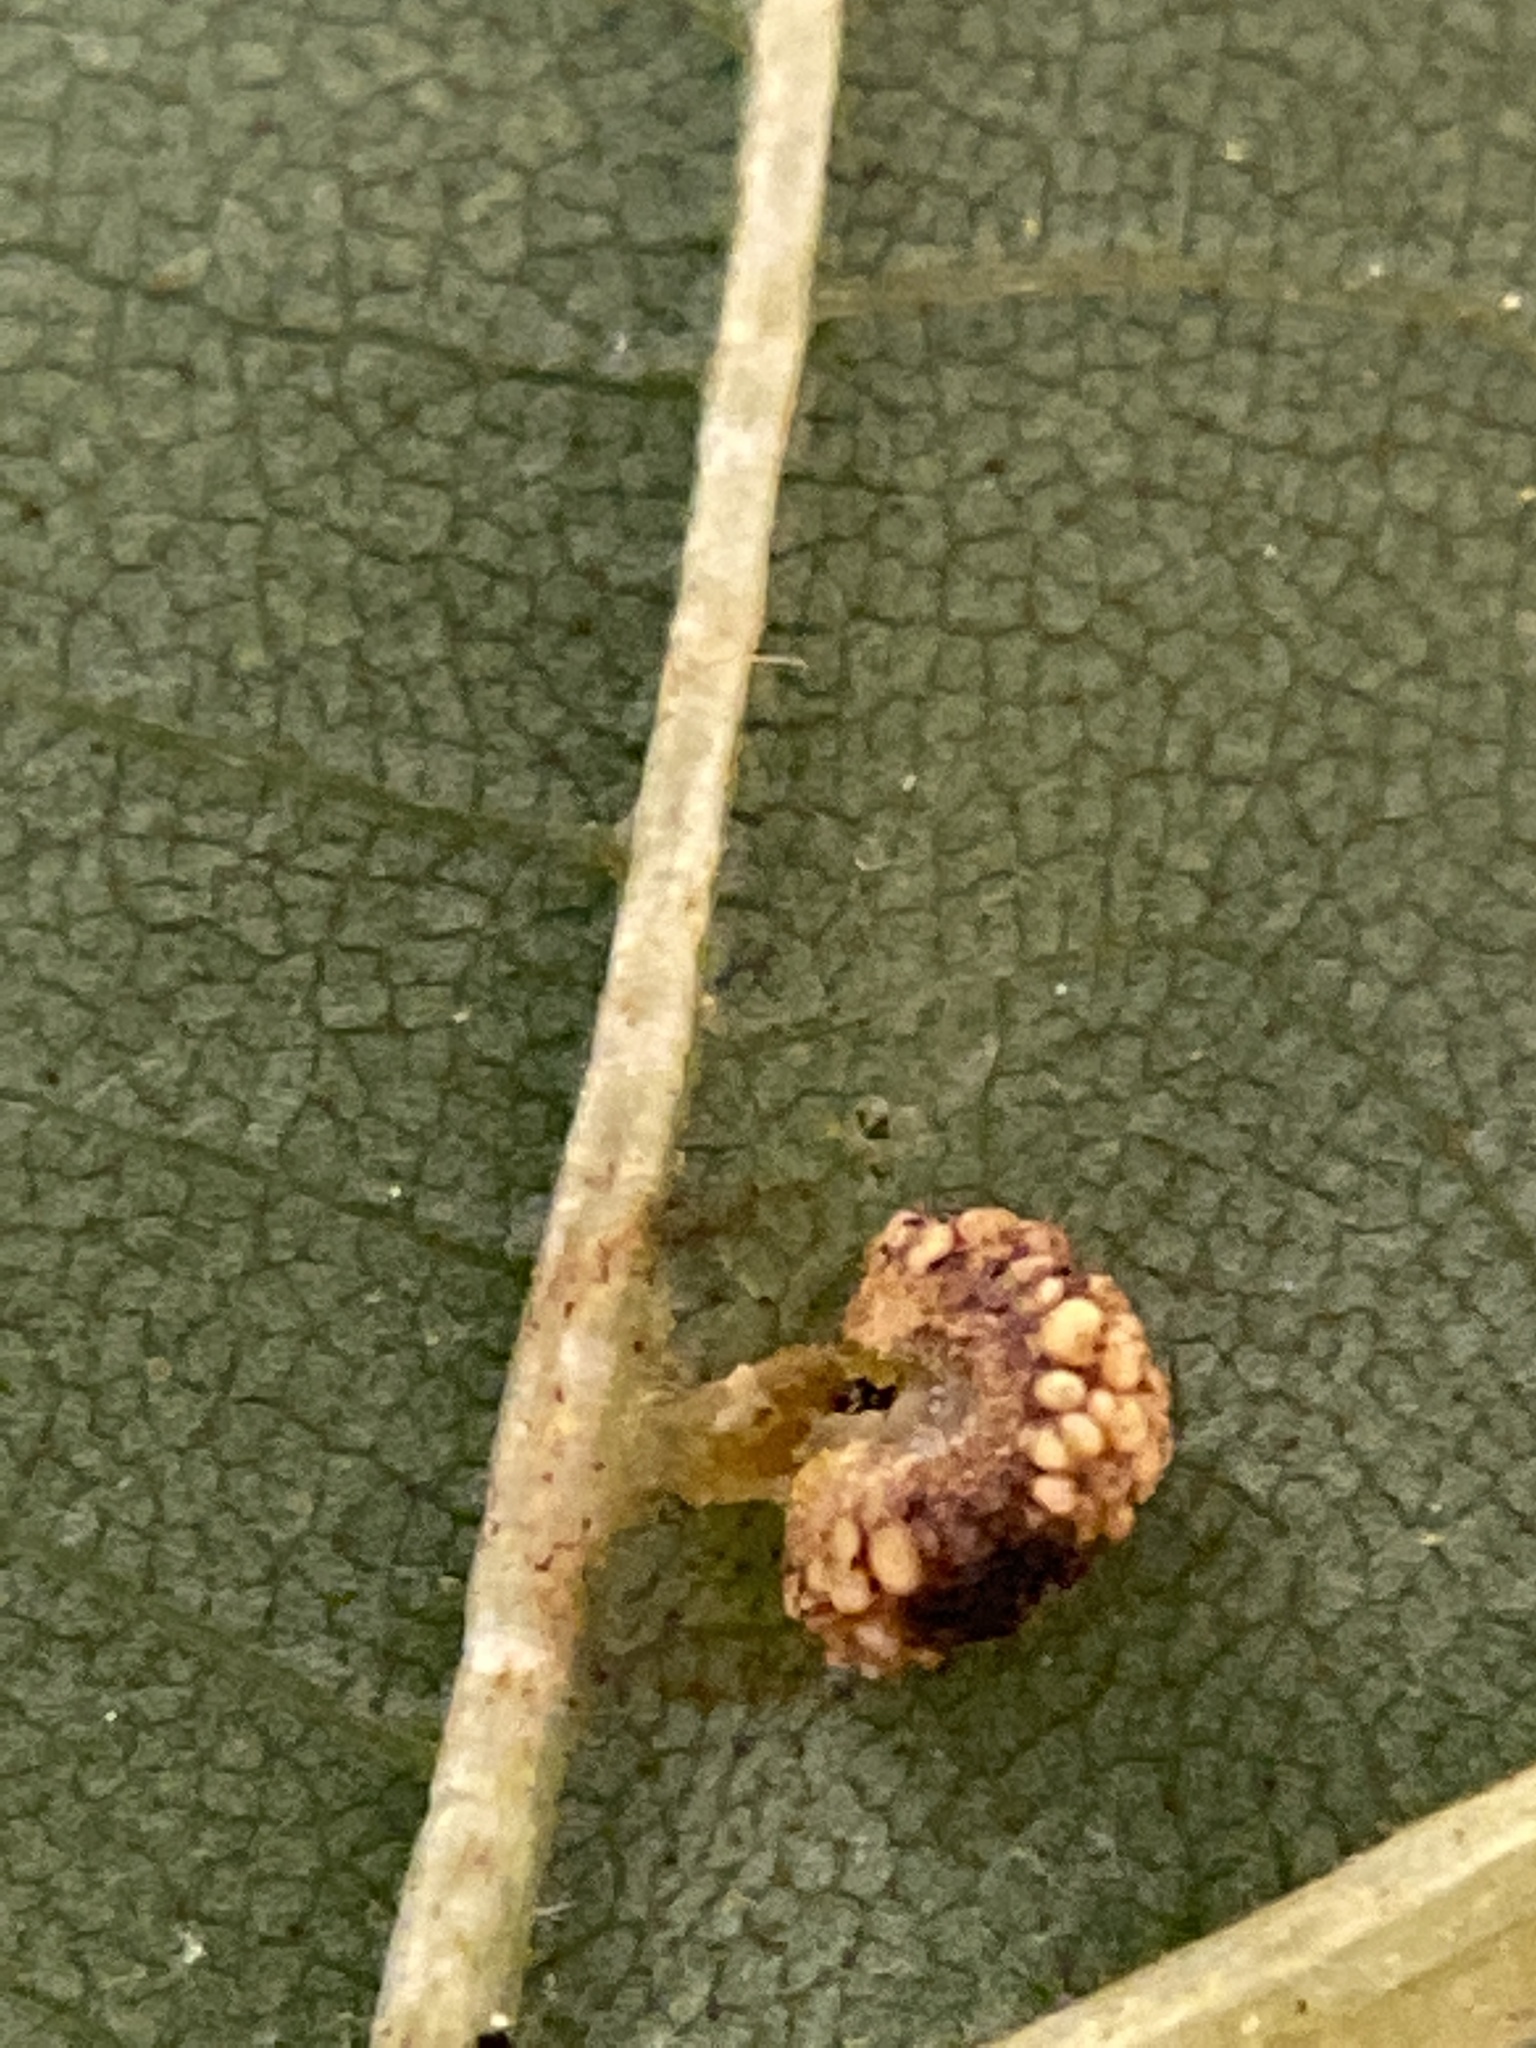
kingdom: Animalia
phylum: Arthropoda
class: Insecta
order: Diptera
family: Cecidomyiidae
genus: Caryomyia
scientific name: Caryomyia glebosa
